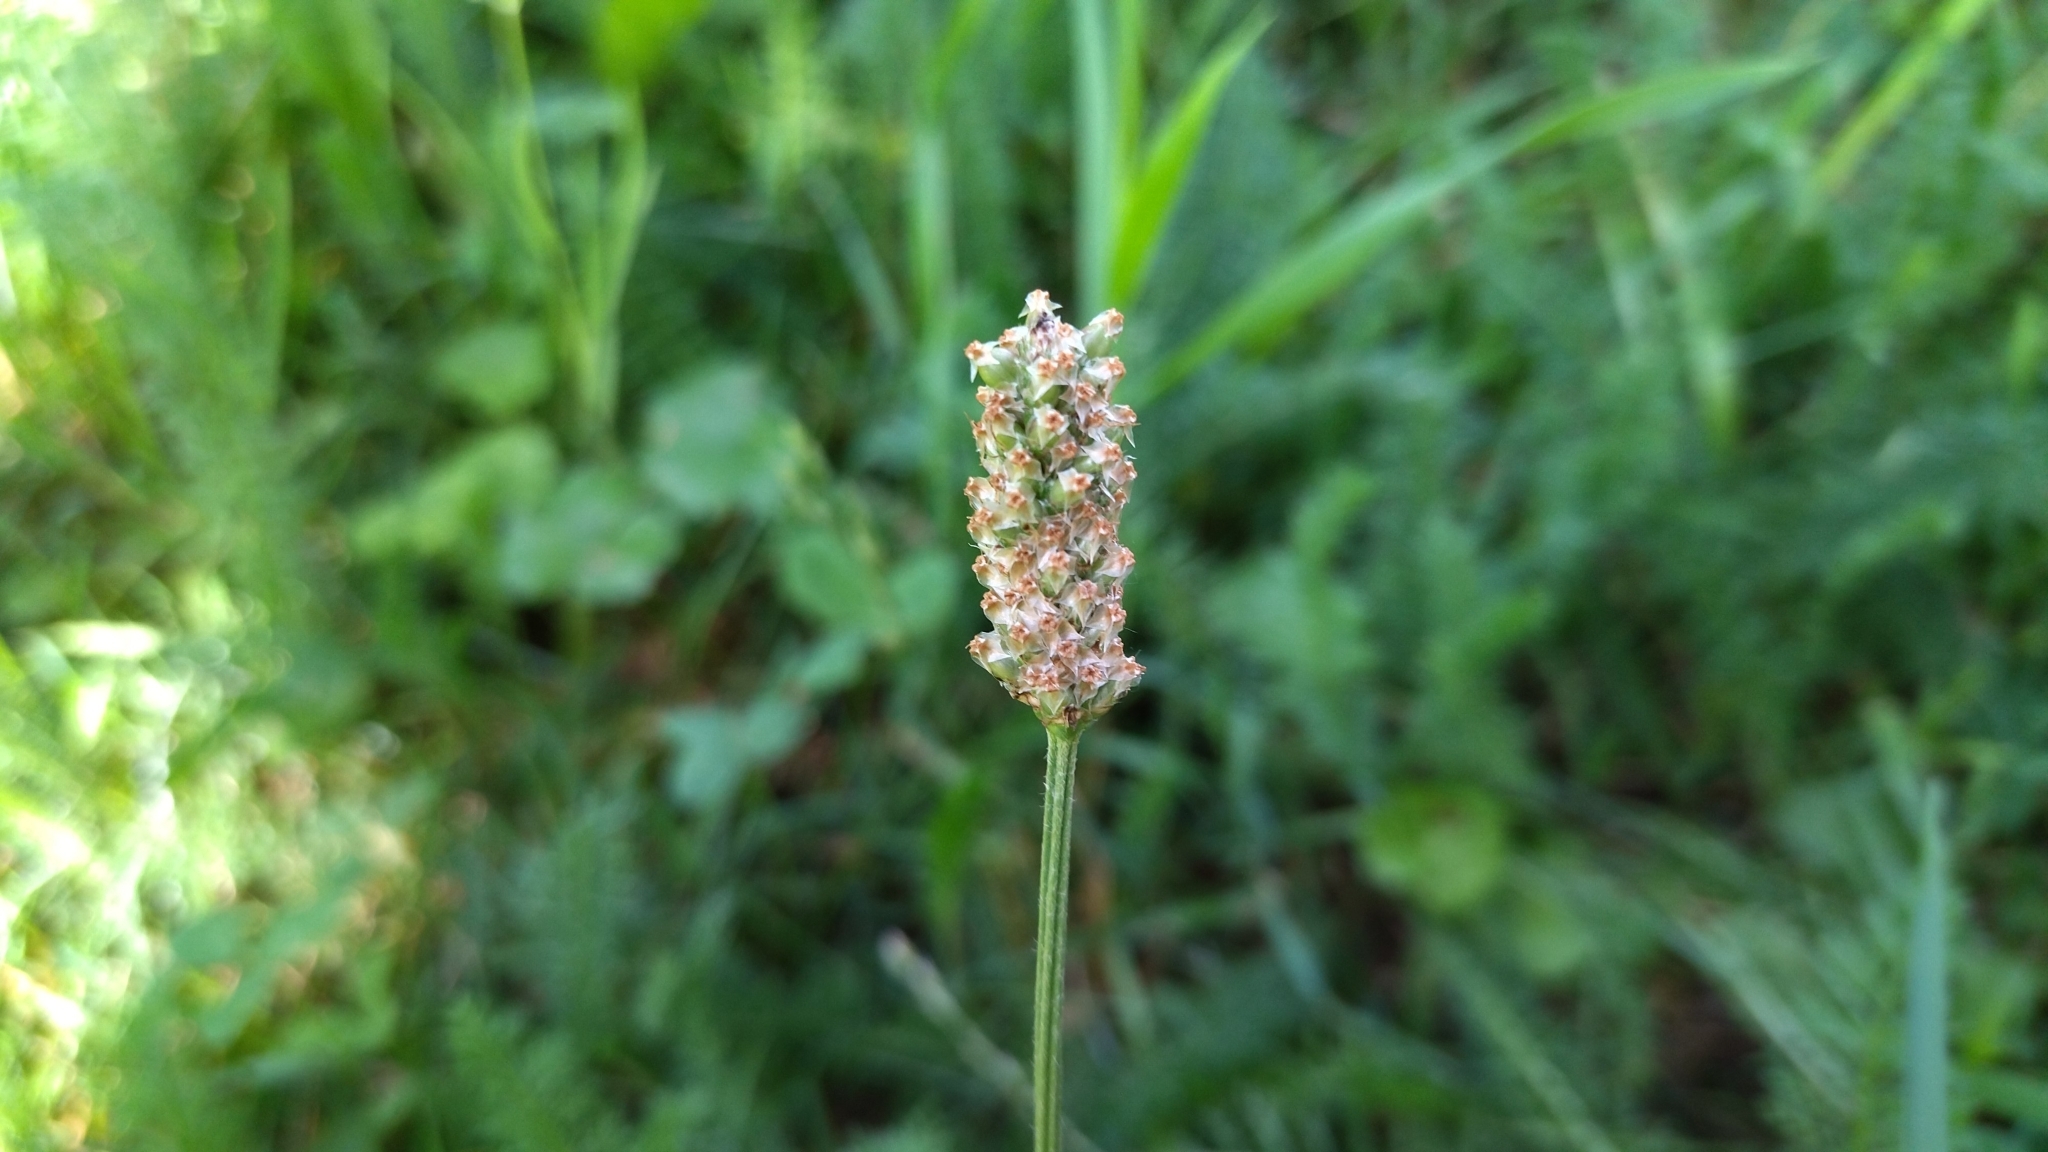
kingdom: Plantae
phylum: Tracheophyta
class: Magnoliopsida
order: Lamiales
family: Plantaginaceae
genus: Plantago
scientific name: Plantago lanceolata
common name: Ribwort plantain
